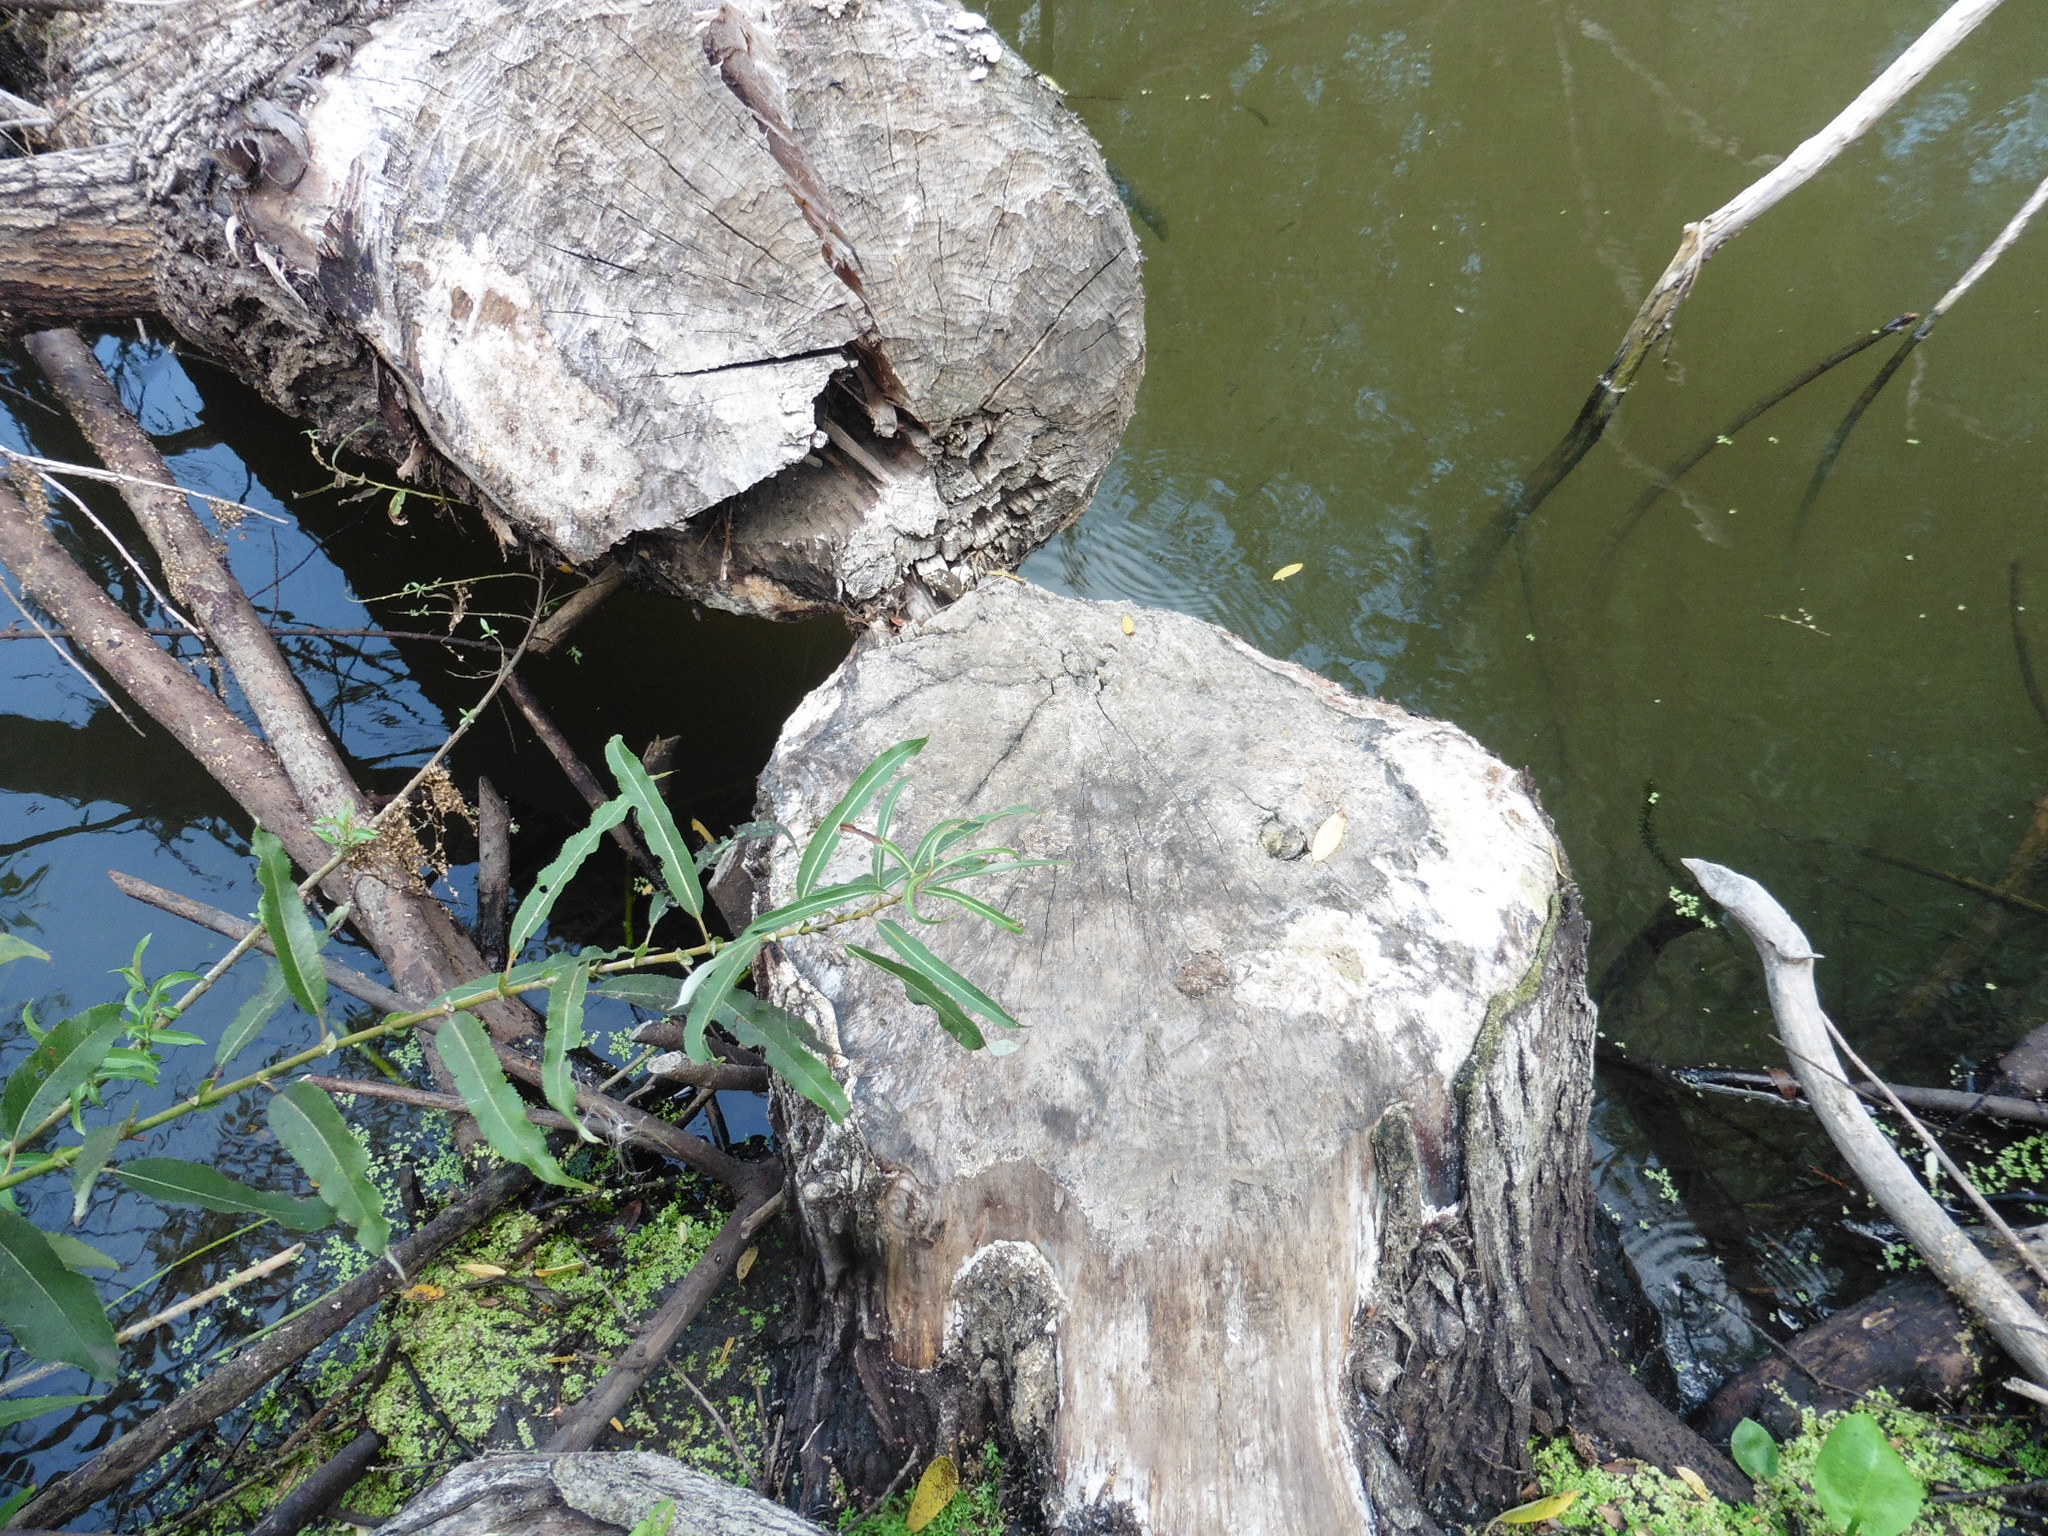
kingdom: Animalia
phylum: Chordata
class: Mammalia
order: Rodentia
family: Castoridae
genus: Castor
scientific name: Castor fiber
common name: Eurasian beaver
